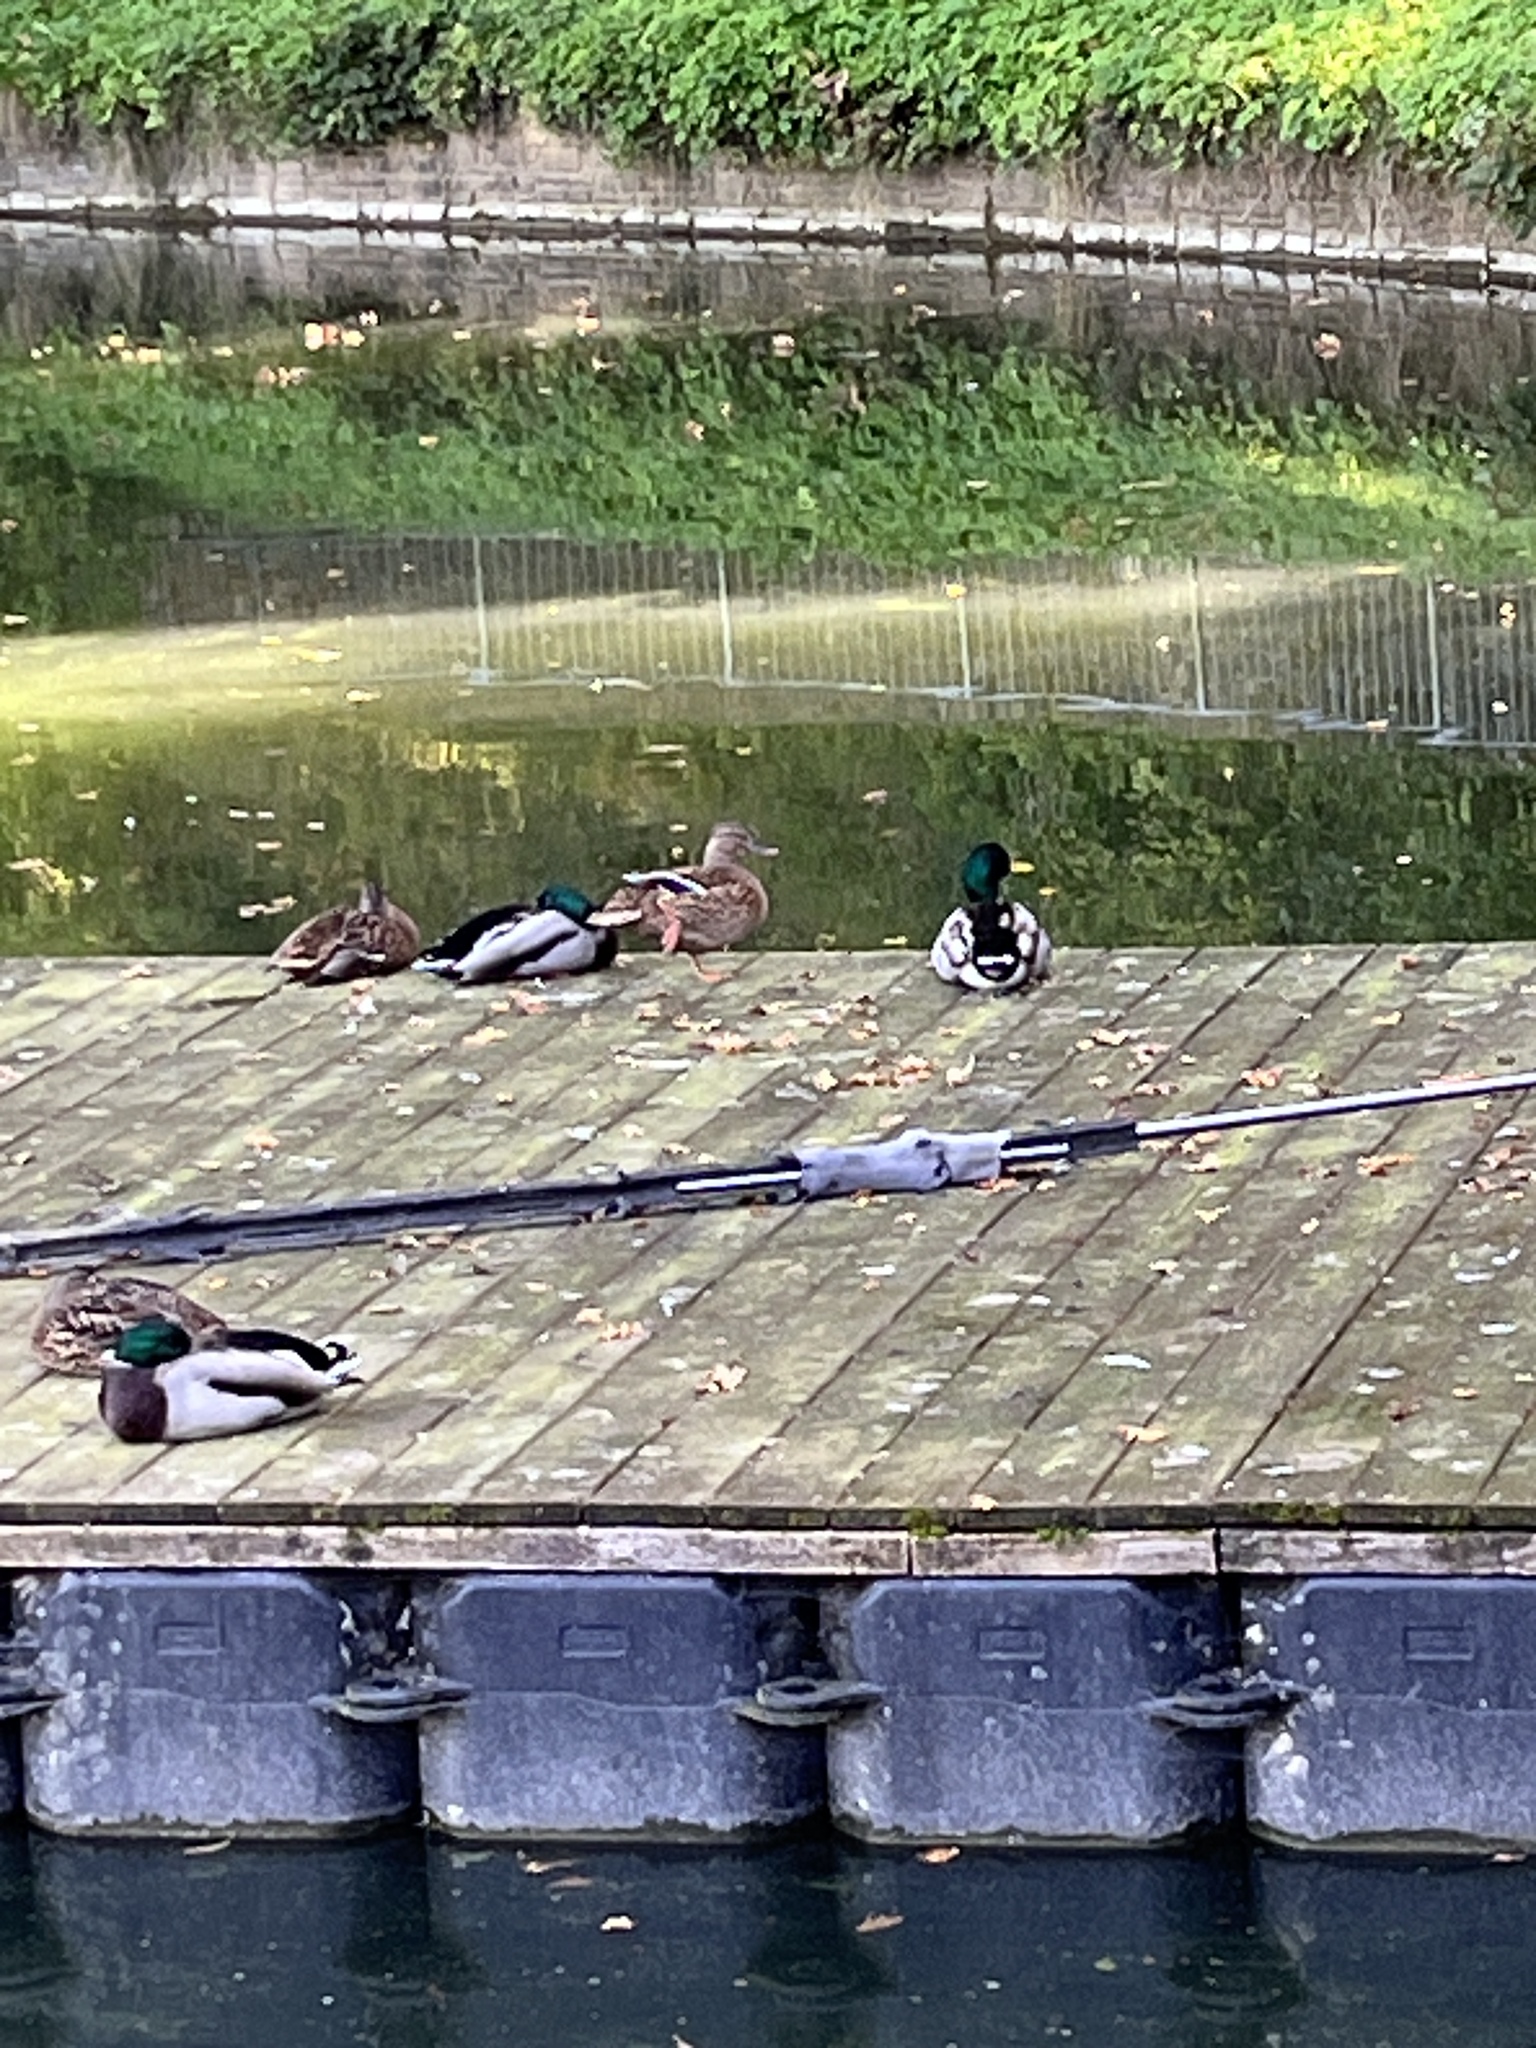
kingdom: Animalia
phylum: Chordata
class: Aves
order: Anseriformes
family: Anatidae
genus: Anas
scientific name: Anas platyrhynchos
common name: Mallard
